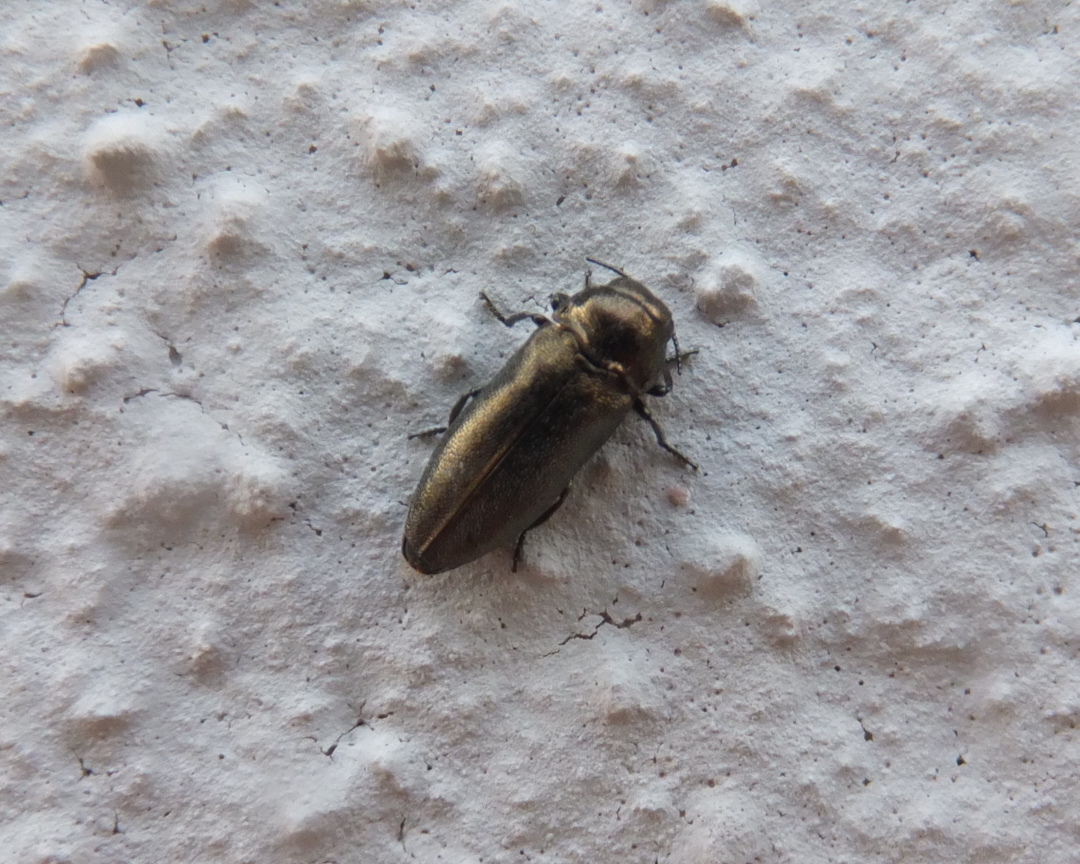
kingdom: Animalia
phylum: Arthropoda
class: Insecta
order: Coleoptera
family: Buprestidae
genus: Coraebus
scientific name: Coraebus elatus
